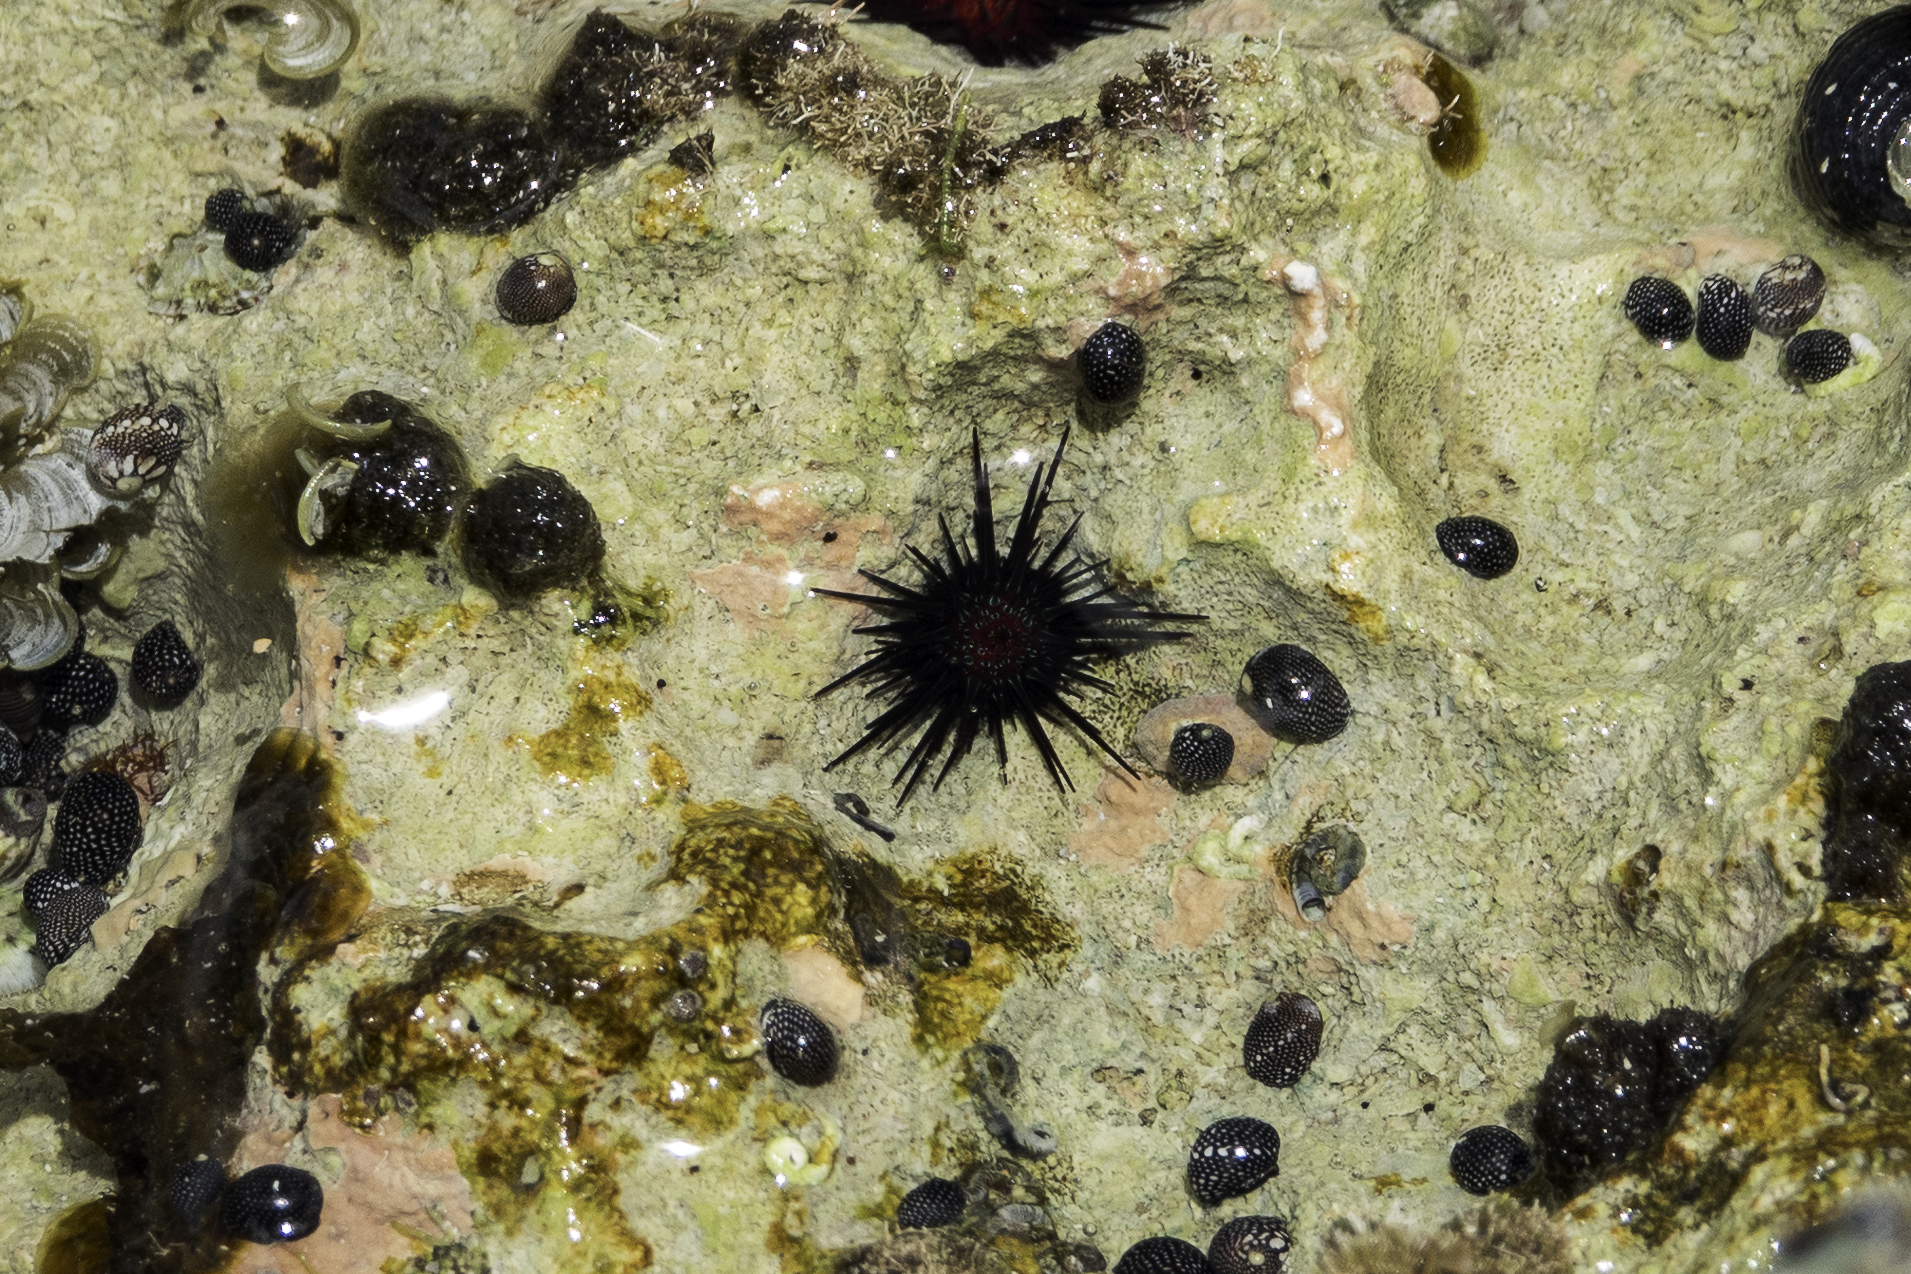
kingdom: Animalia
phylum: Echinodermata
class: Echinoidea
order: Camarodonta
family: Echinometridae
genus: Echinometra
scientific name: Echinometra lucunter
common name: Rock urchin
